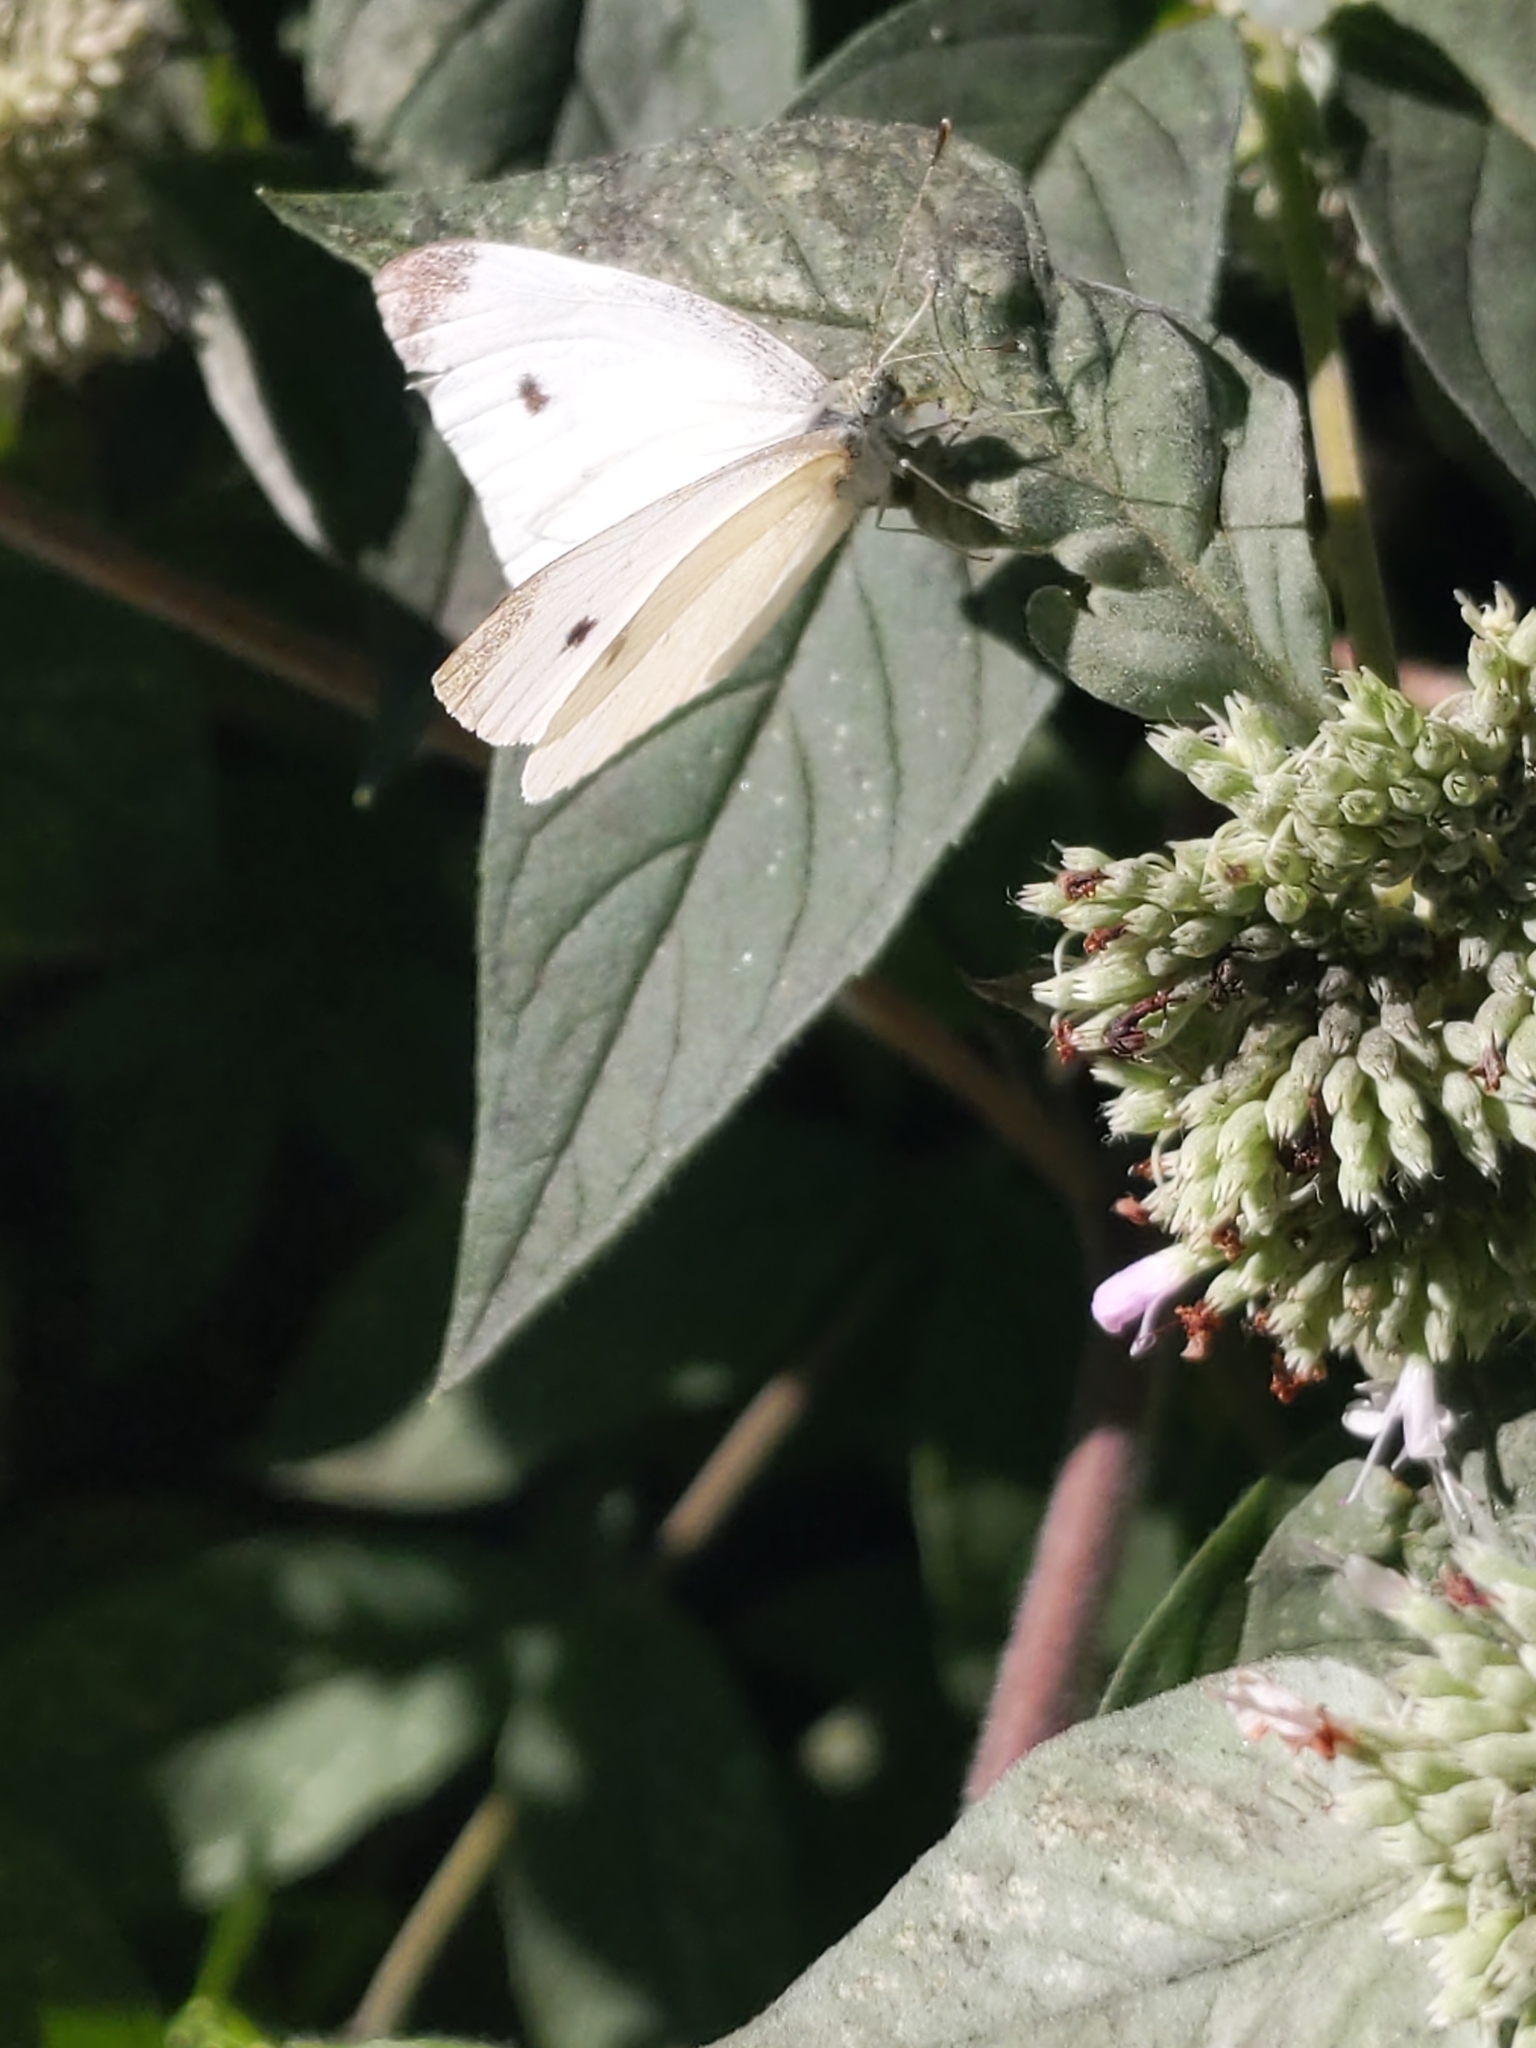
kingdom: Animalia
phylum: Arthropoda
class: Insecta
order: Lepidoptera
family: Pieridae
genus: Pieris
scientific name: Pieris rapae
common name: Small white
